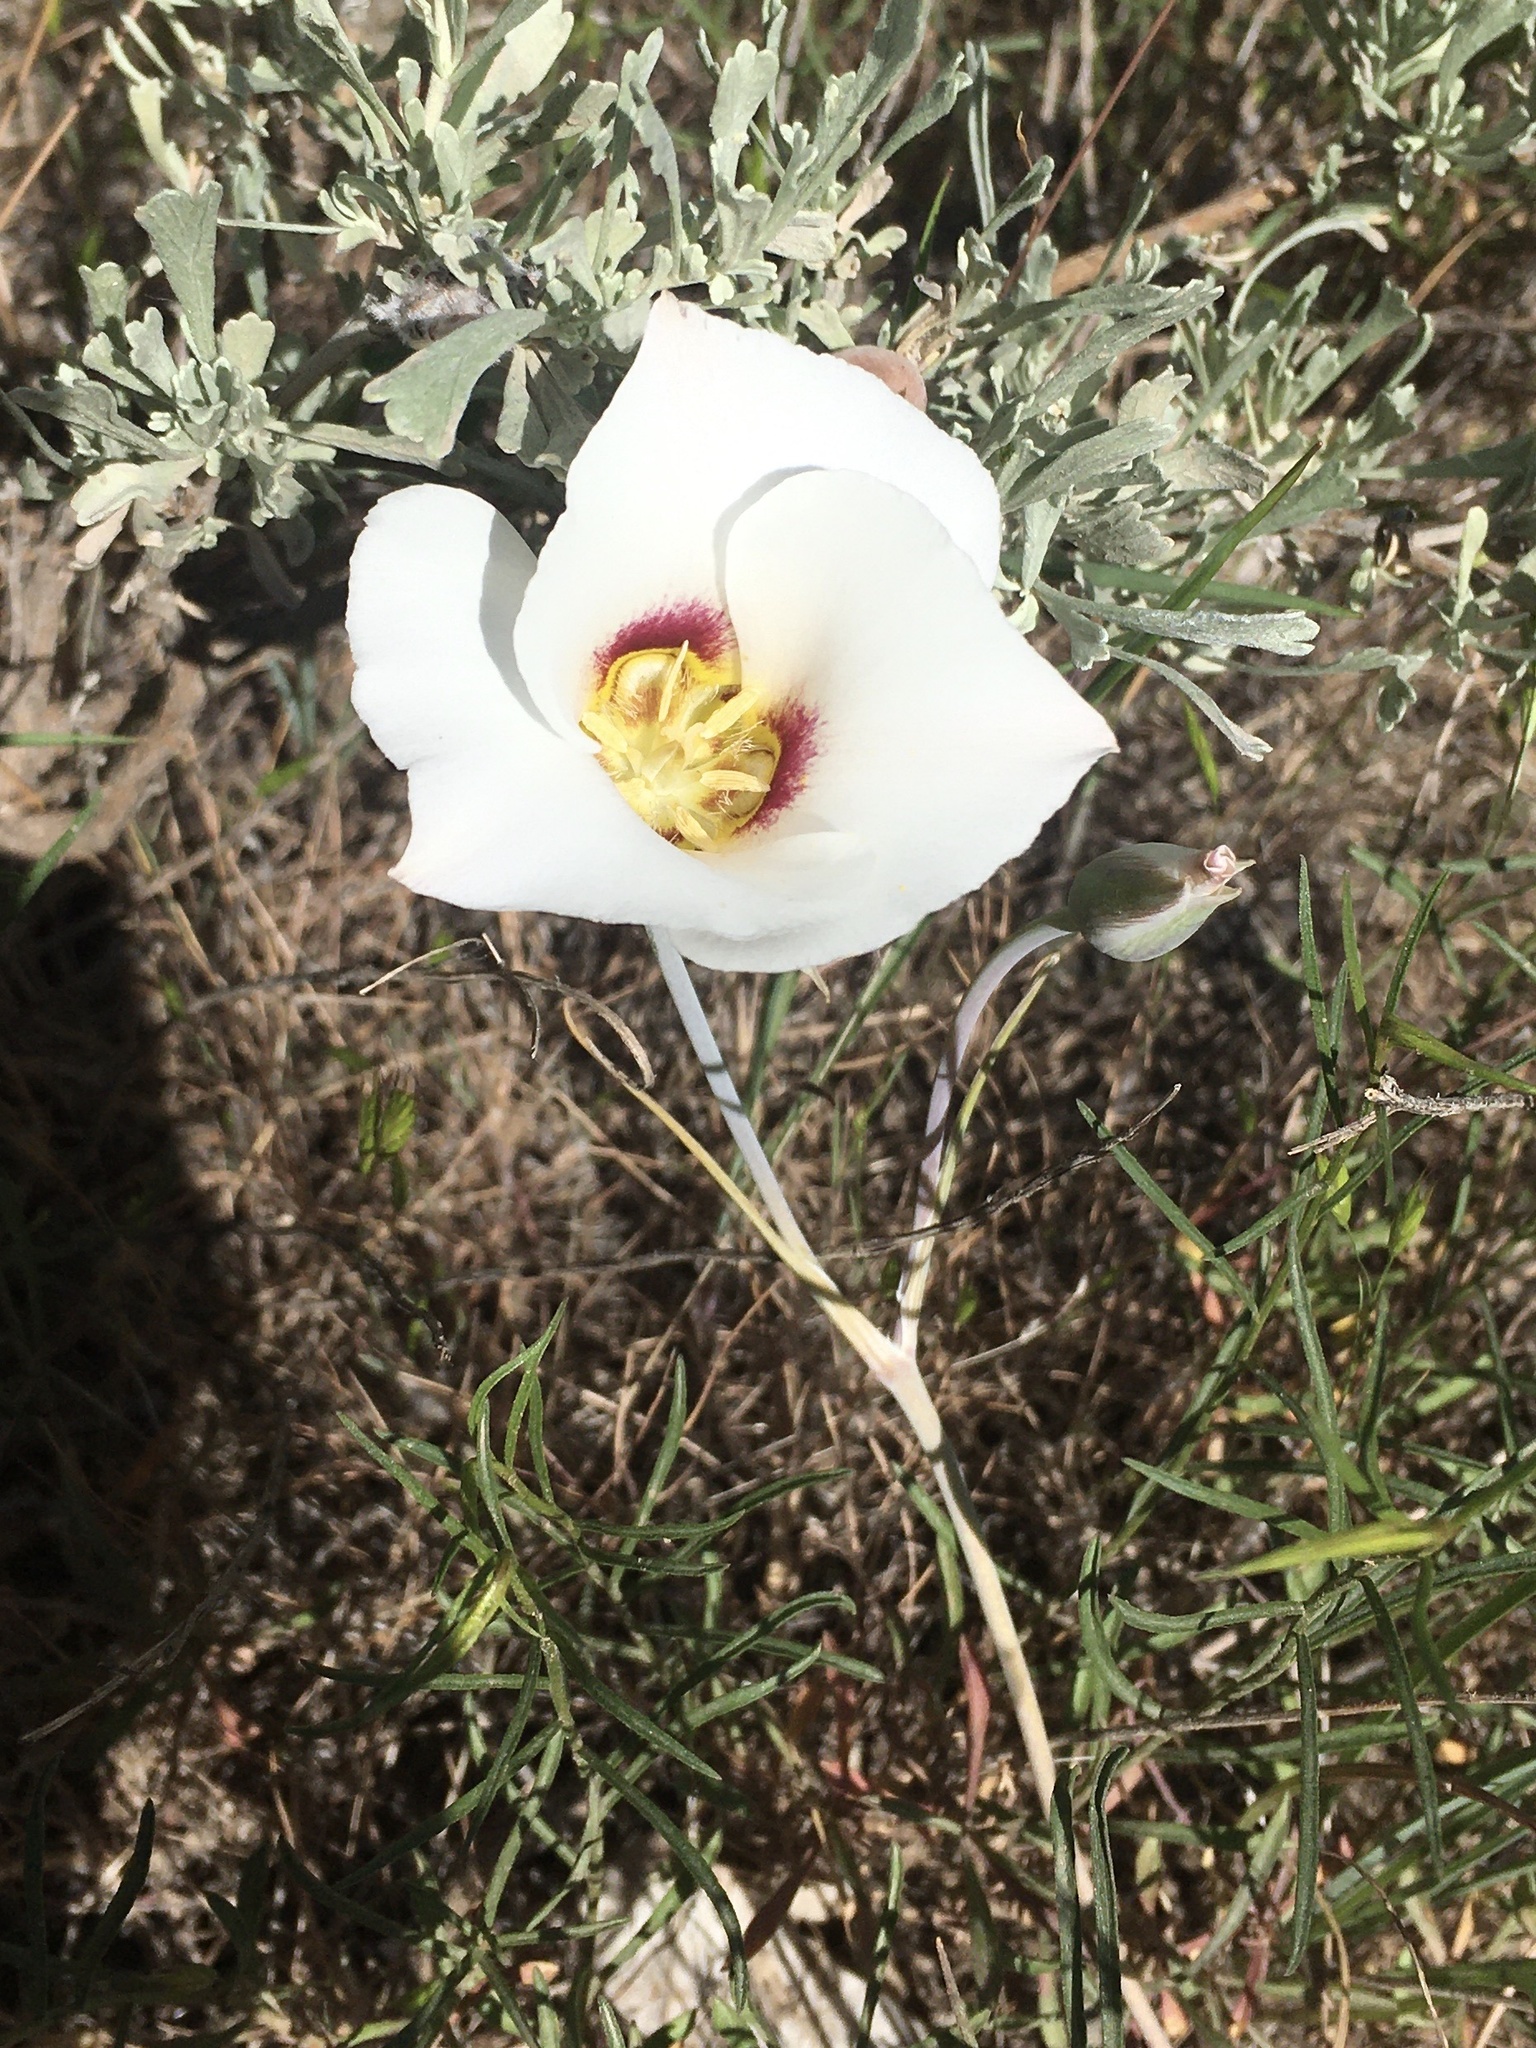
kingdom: Plantae
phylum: Tracheophyta
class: Liliopsida
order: Liliales
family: Liliaceae
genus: Calochortus
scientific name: Calochortus nuttallii
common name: Sego-lily
